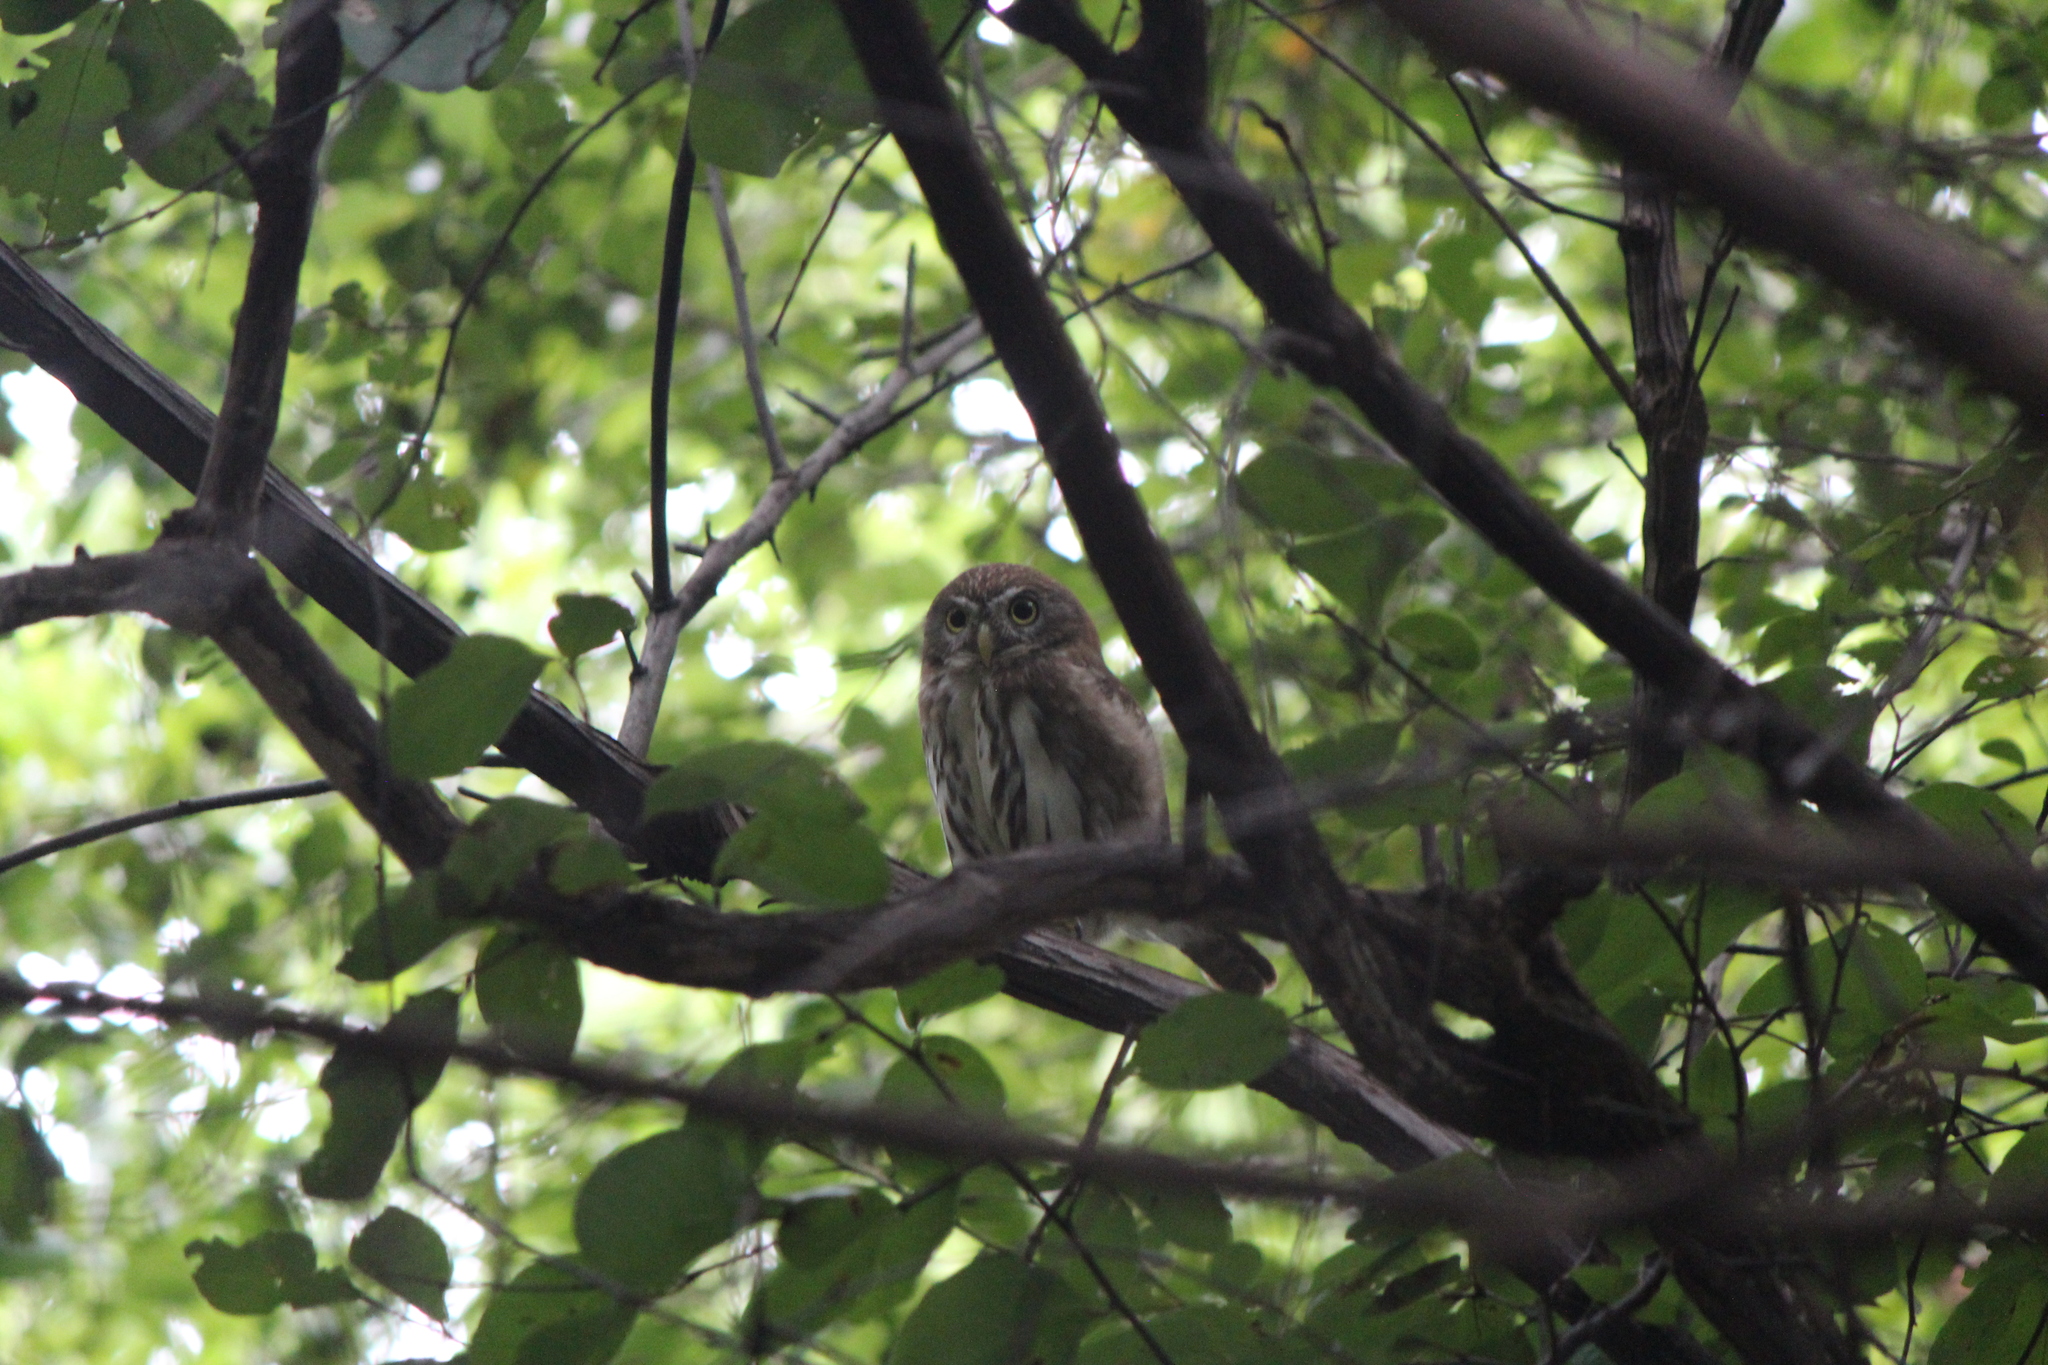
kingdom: Animalia
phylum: Chordata
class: Aves
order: Strigiformes
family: Strigidae
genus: Glaucidium
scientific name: Glaucidium brasilianum
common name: Ferruginous pygmy-owl
